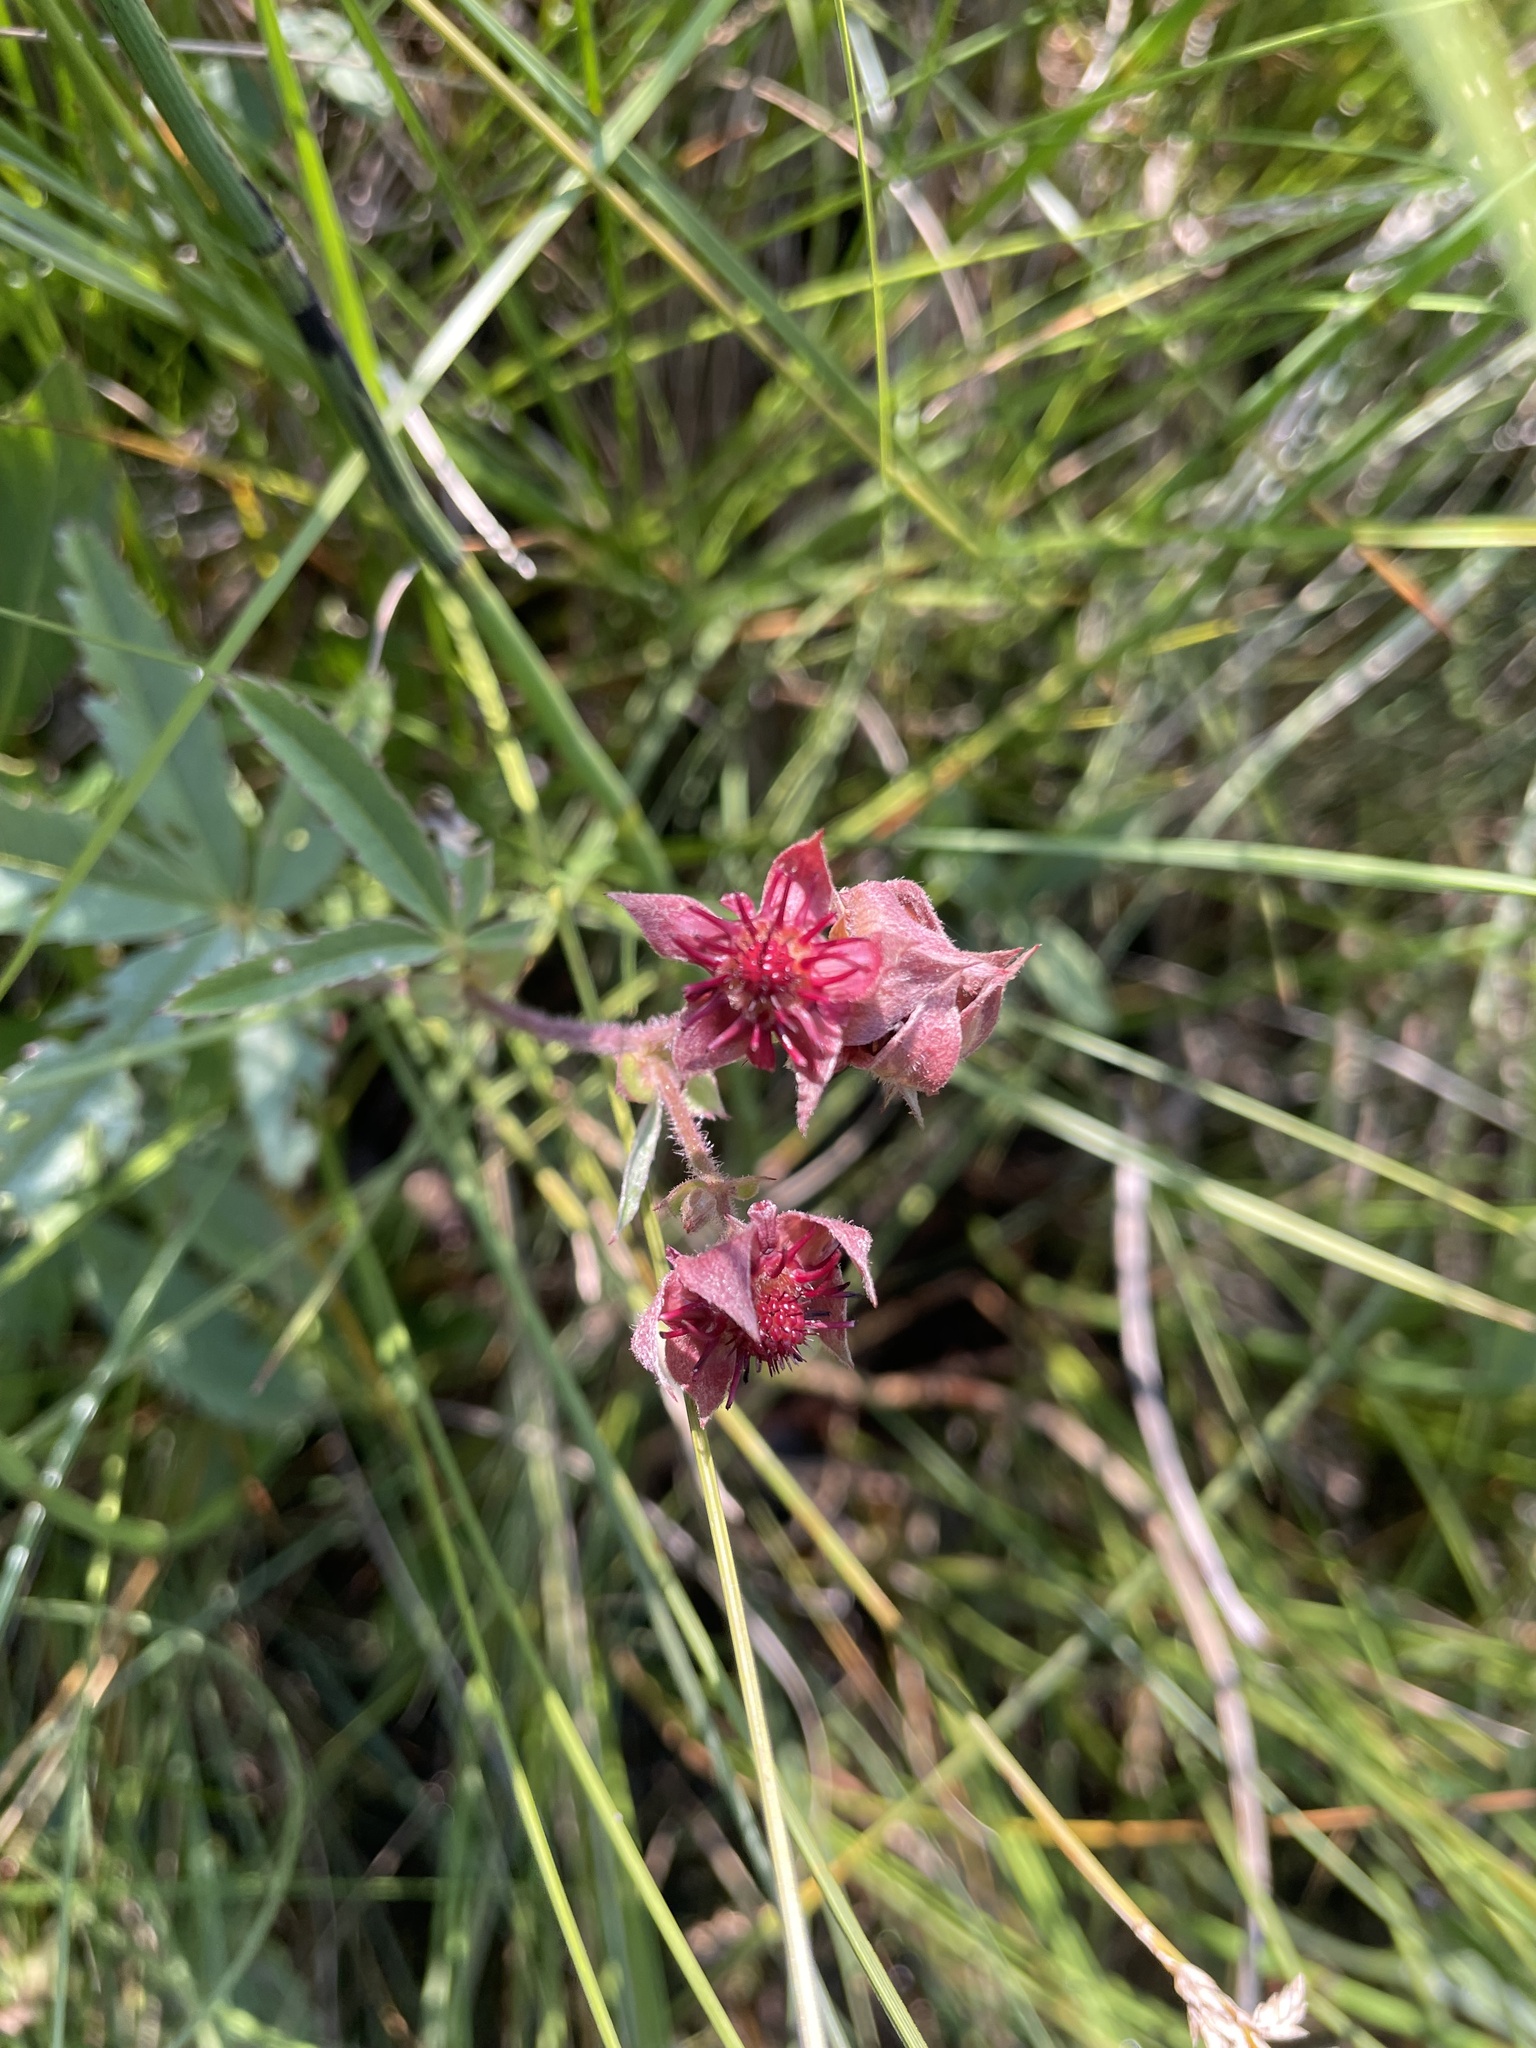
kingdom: Plantae
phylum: Tracheophyta
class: Magnoliopsida
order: Rosales
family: Rosaceae
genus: Comarum
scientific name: Comarum palustre
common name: Marsh cinquefoil
